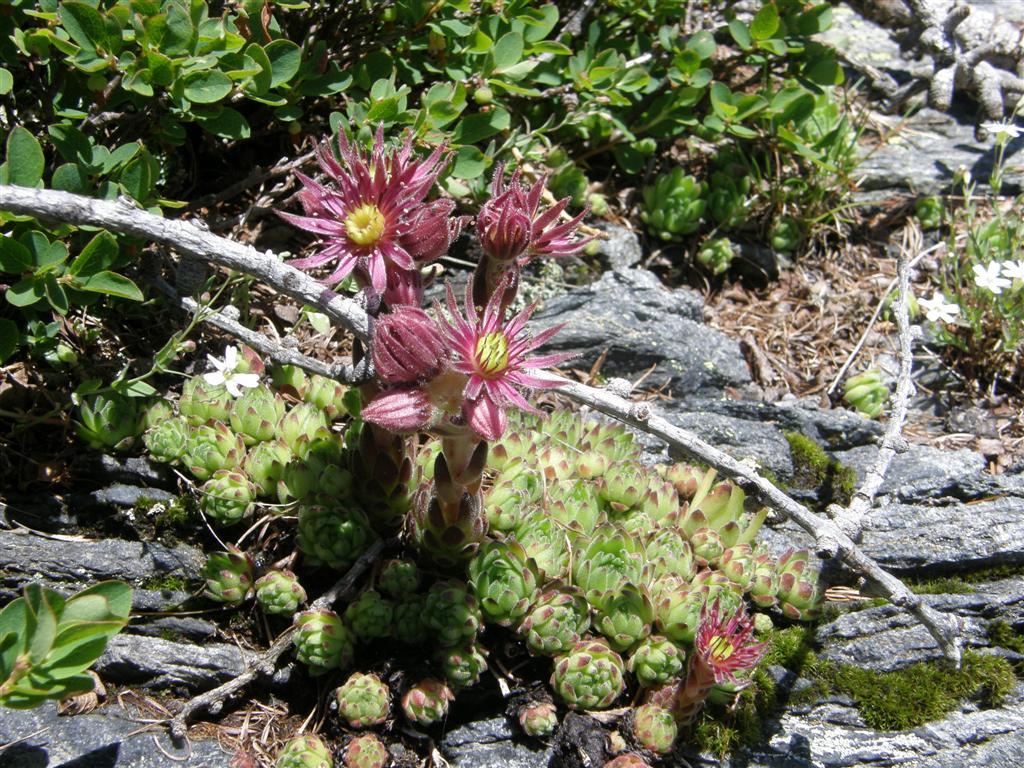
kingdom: Plantae
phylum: Tracheophyta
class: Magnoliopsida
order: Saxifragales
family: Crassulaceae
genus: Sempervivum
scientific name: Sempervivum montanum
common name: Mountain house-leek
